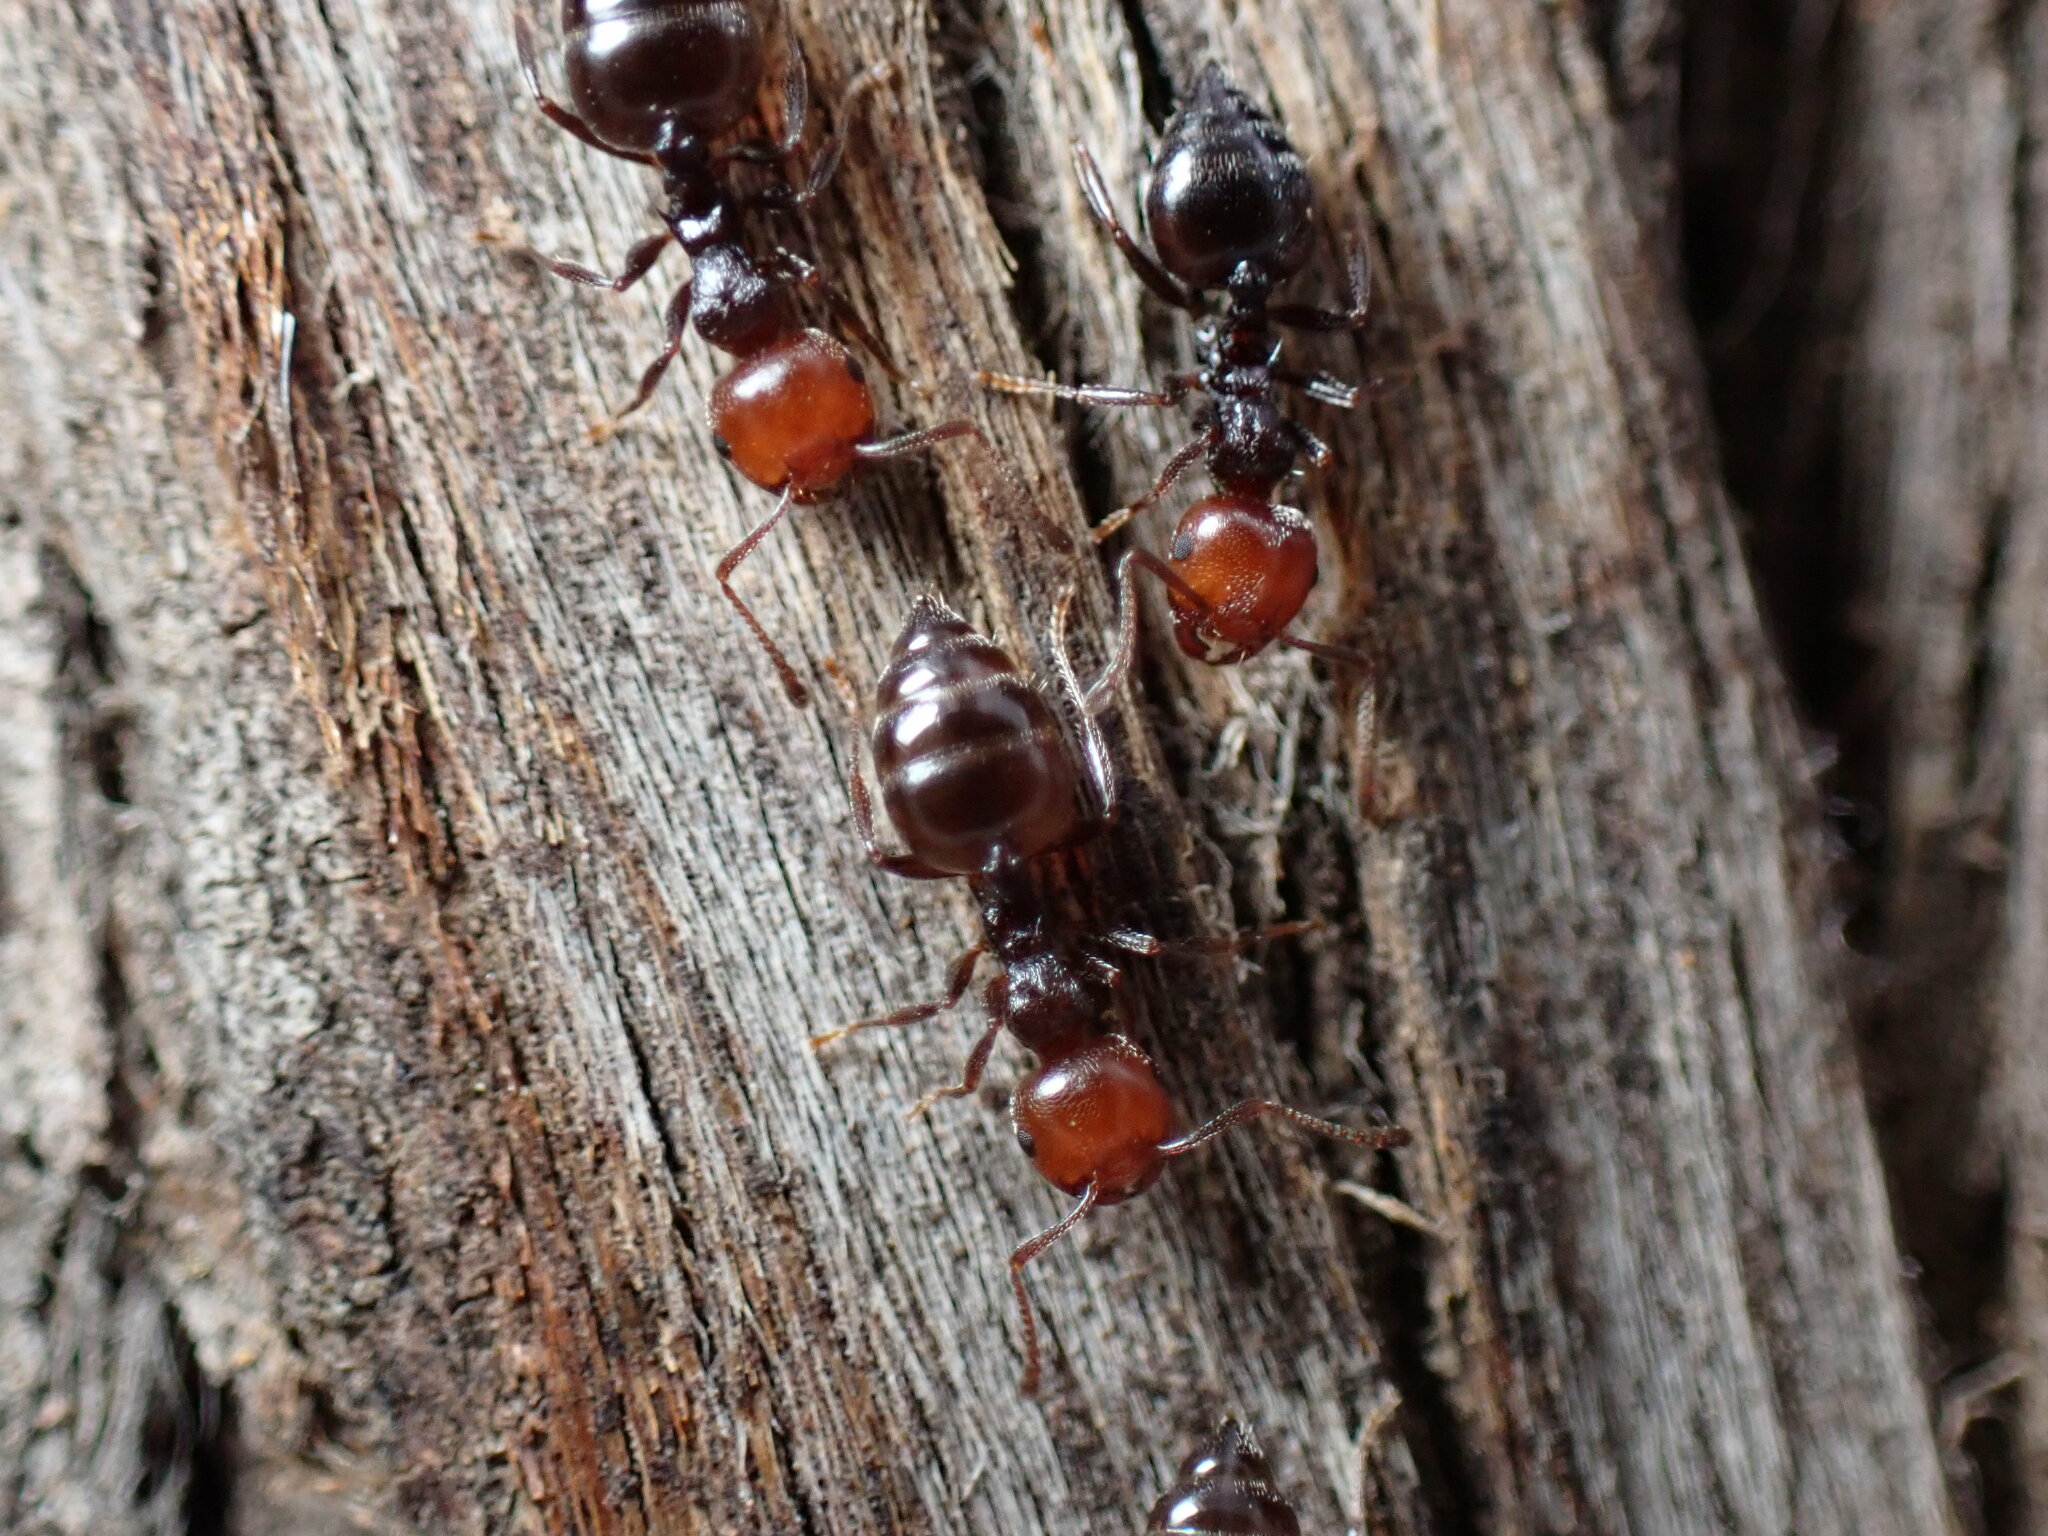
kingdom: Animalia
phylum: Arthropoda
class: Insecta
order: Hymenoptera
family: Formicidae
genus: Crematogaster
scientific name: Crematogaster scutellaris
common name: Fourmi du liège
